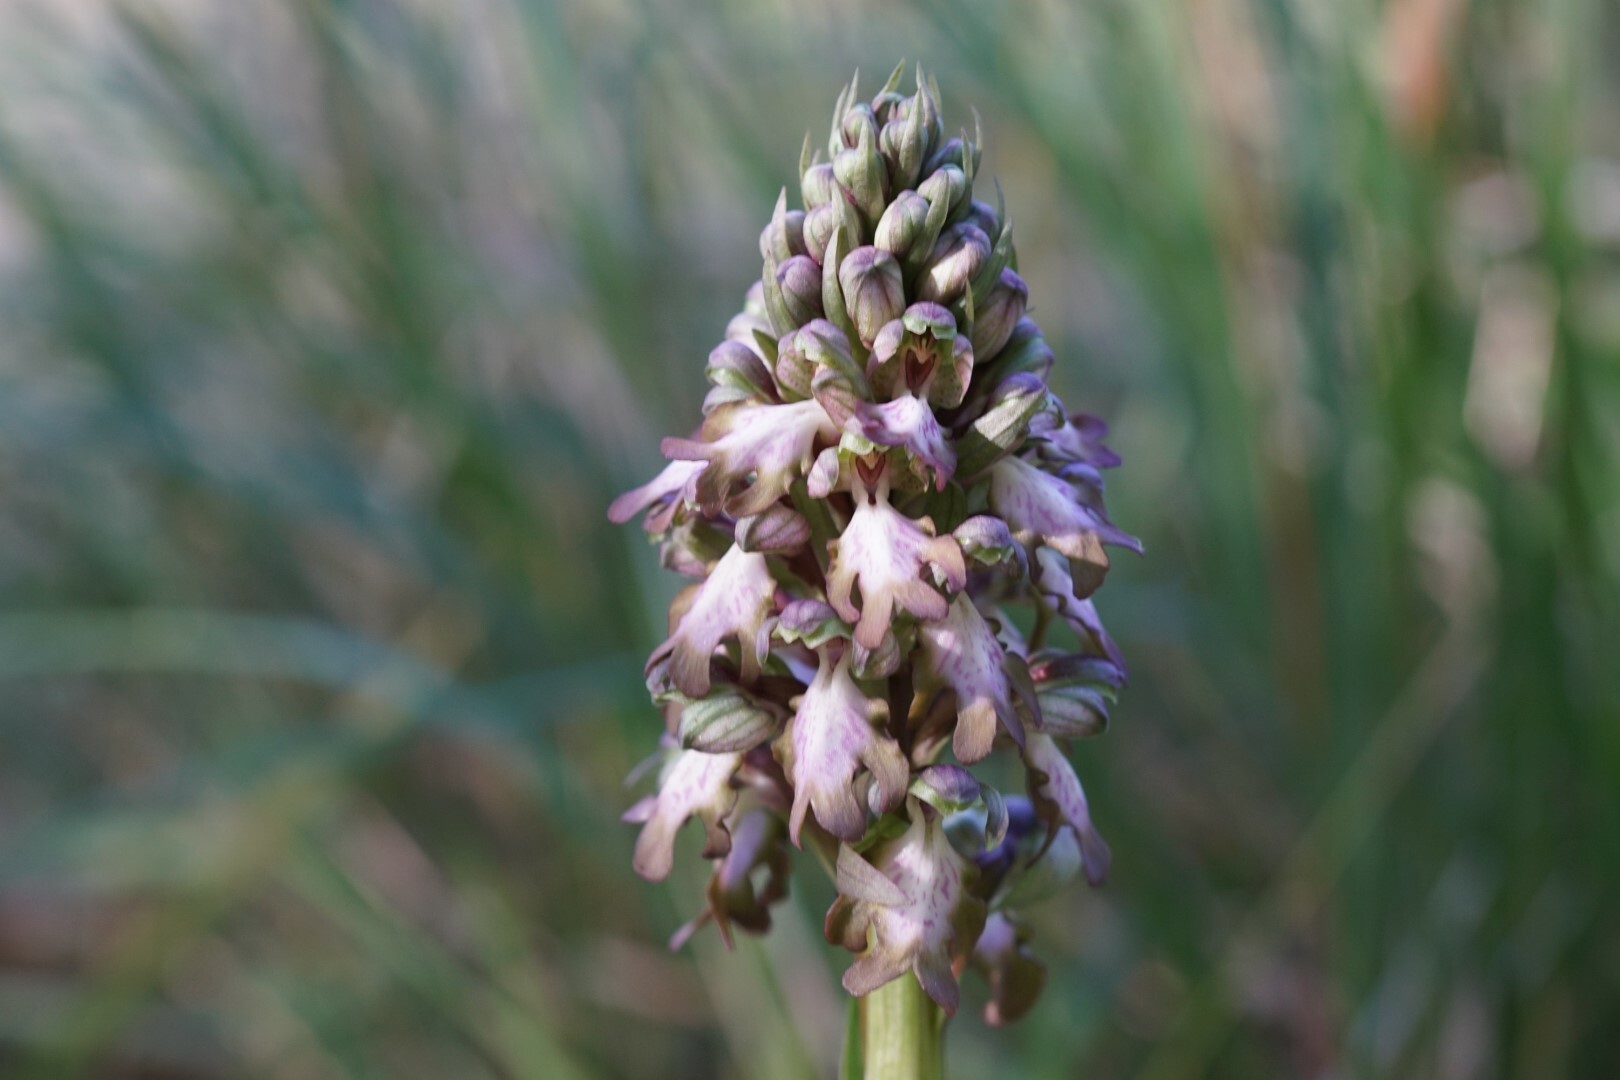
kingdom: Plantae
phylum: Tracheophyta
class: Liliopsida
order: Asparagales
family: Orchidaceae
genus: Himantoglossum
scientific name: Himantoglossum robertianum
